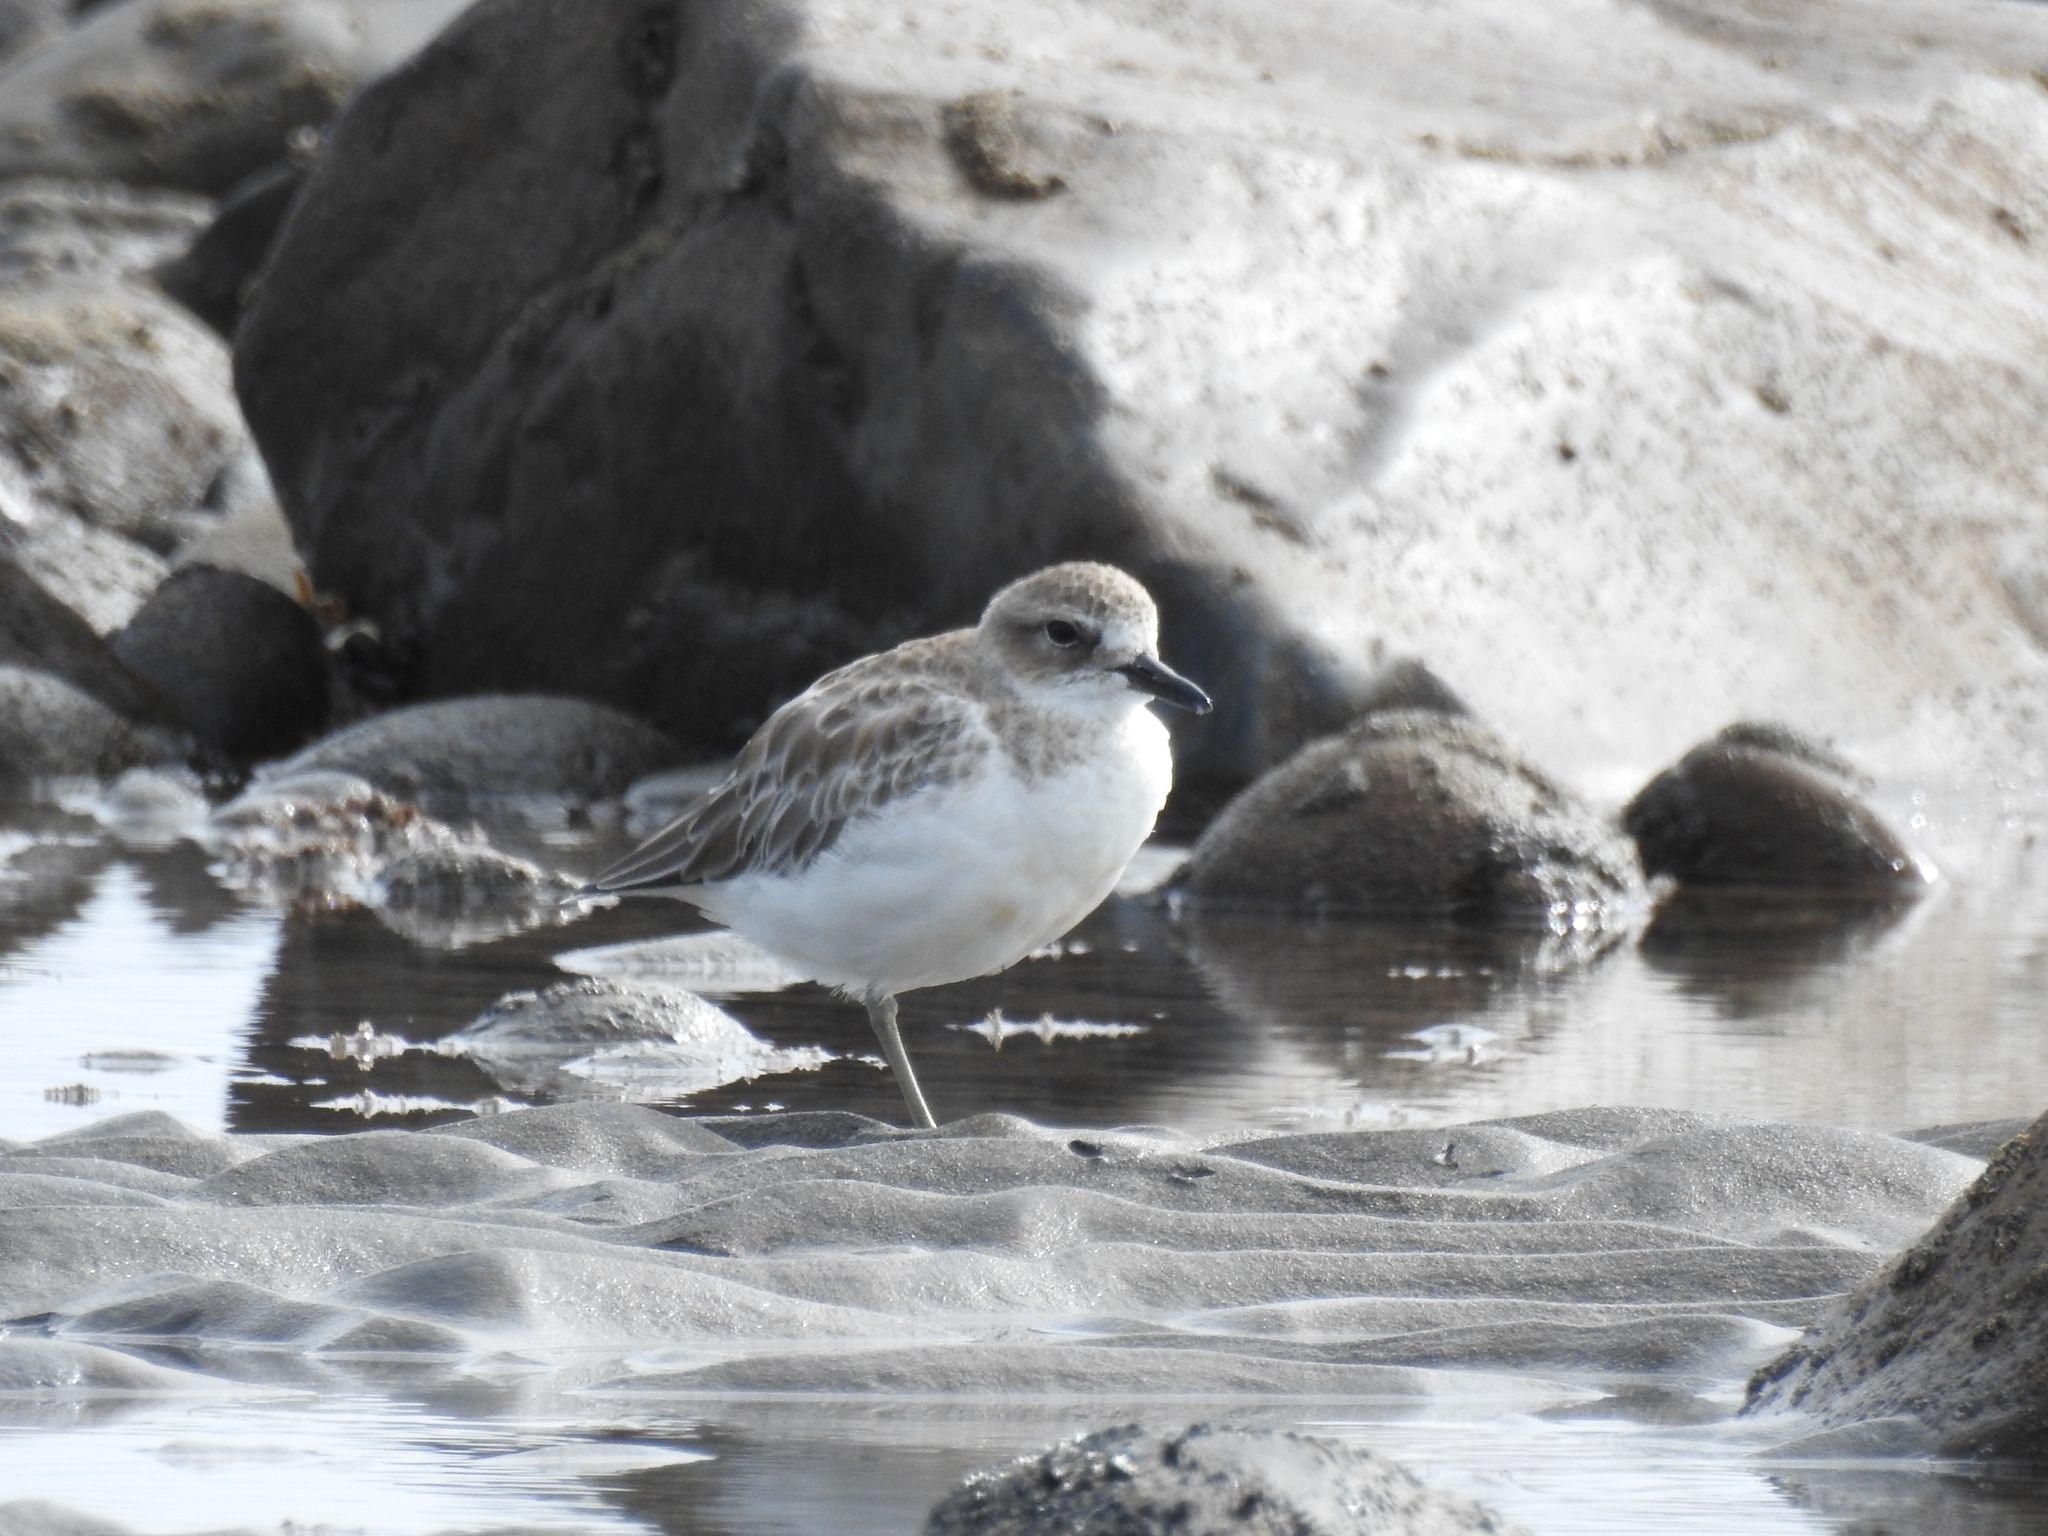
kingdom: Animalia
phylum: Chordata
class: Aves
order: Charadriiformes
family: Charadriidae
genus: Anarhynchus
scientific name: Anarhynchus
